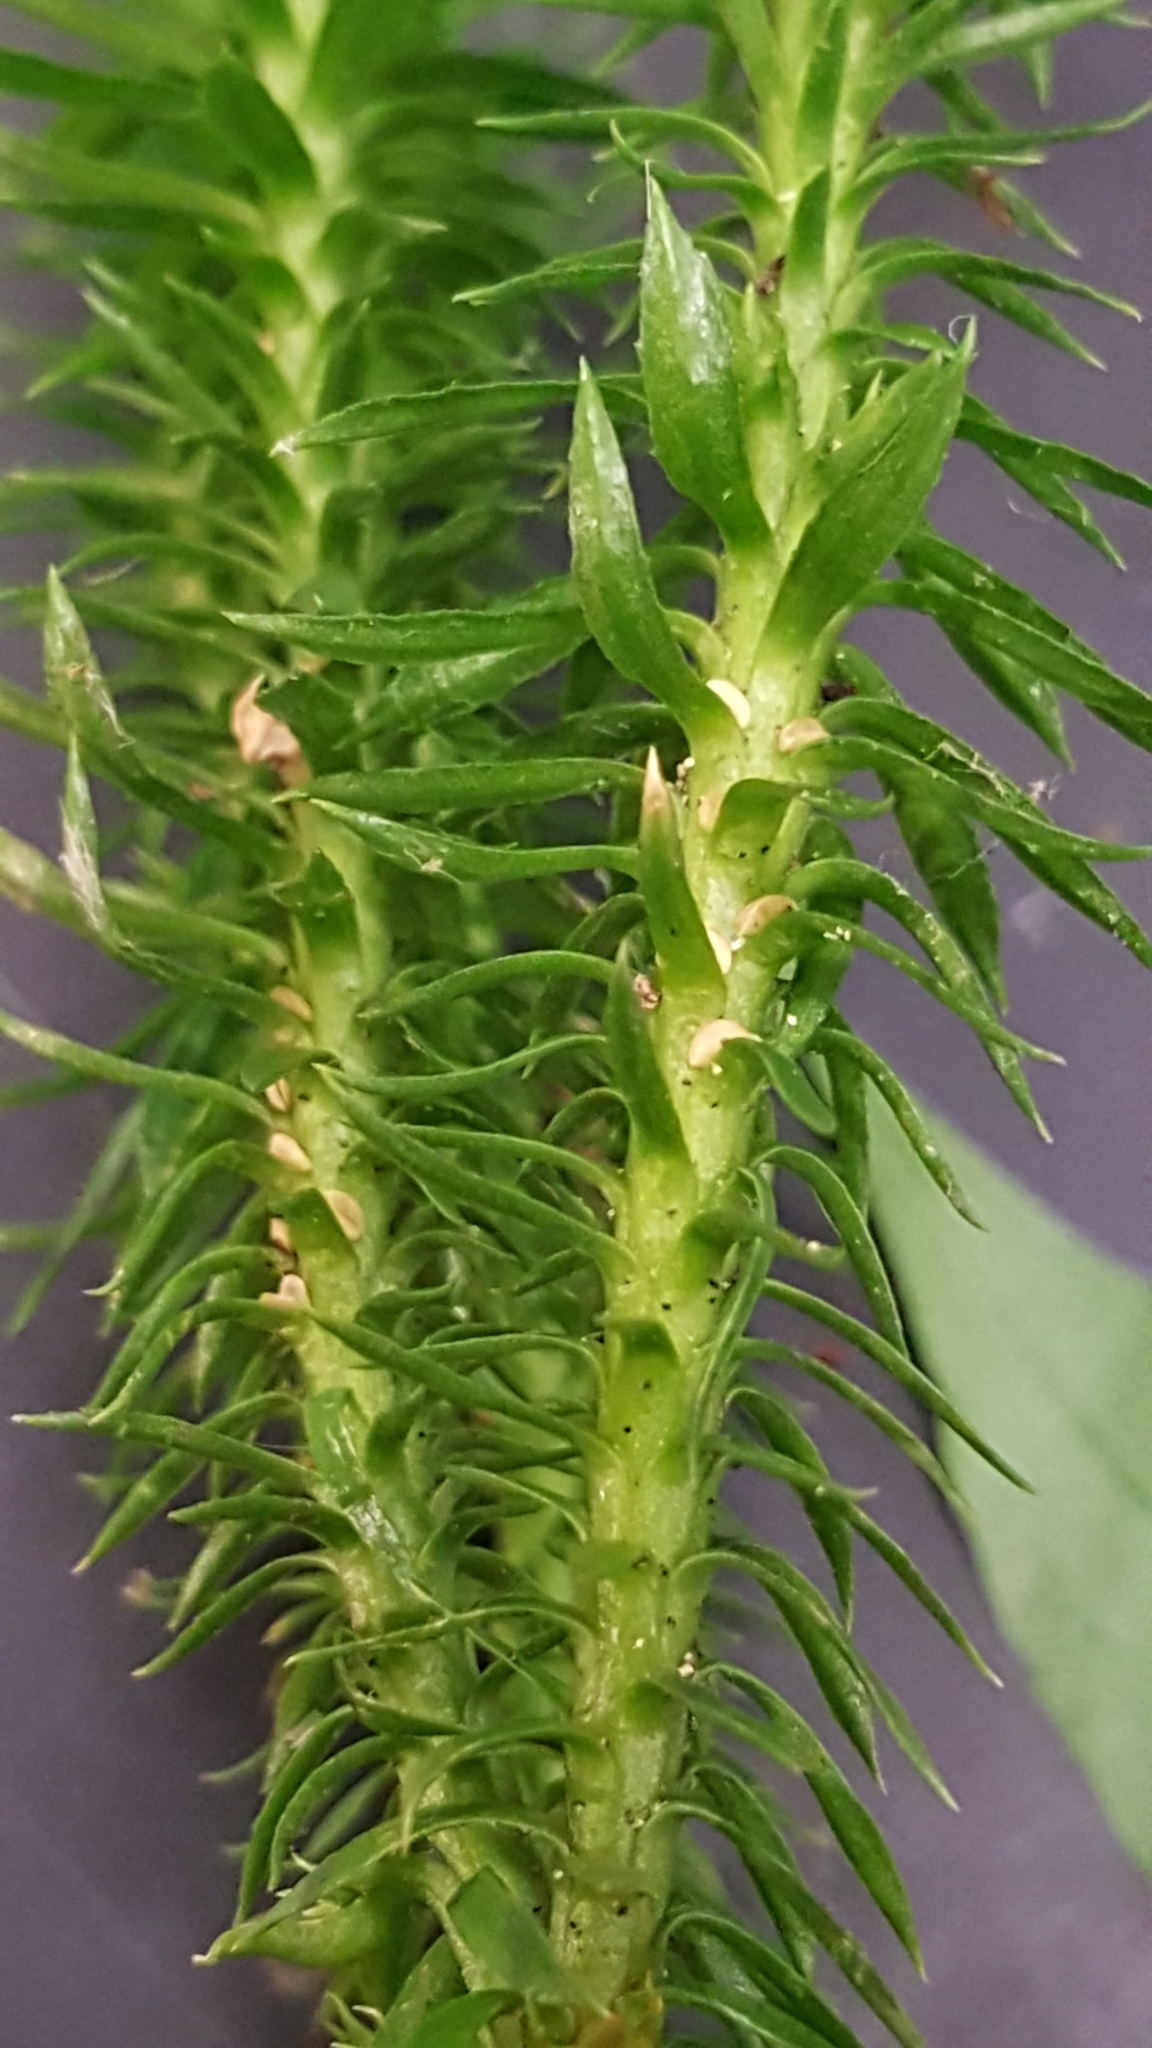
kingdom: Plantae
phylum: Tracheophyta
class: Lycopodiopsida
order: Lycopodiales
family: Lycopodiaceae
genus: Huperzia
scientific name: Huperzia lucidula
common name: Shining clubmoss
